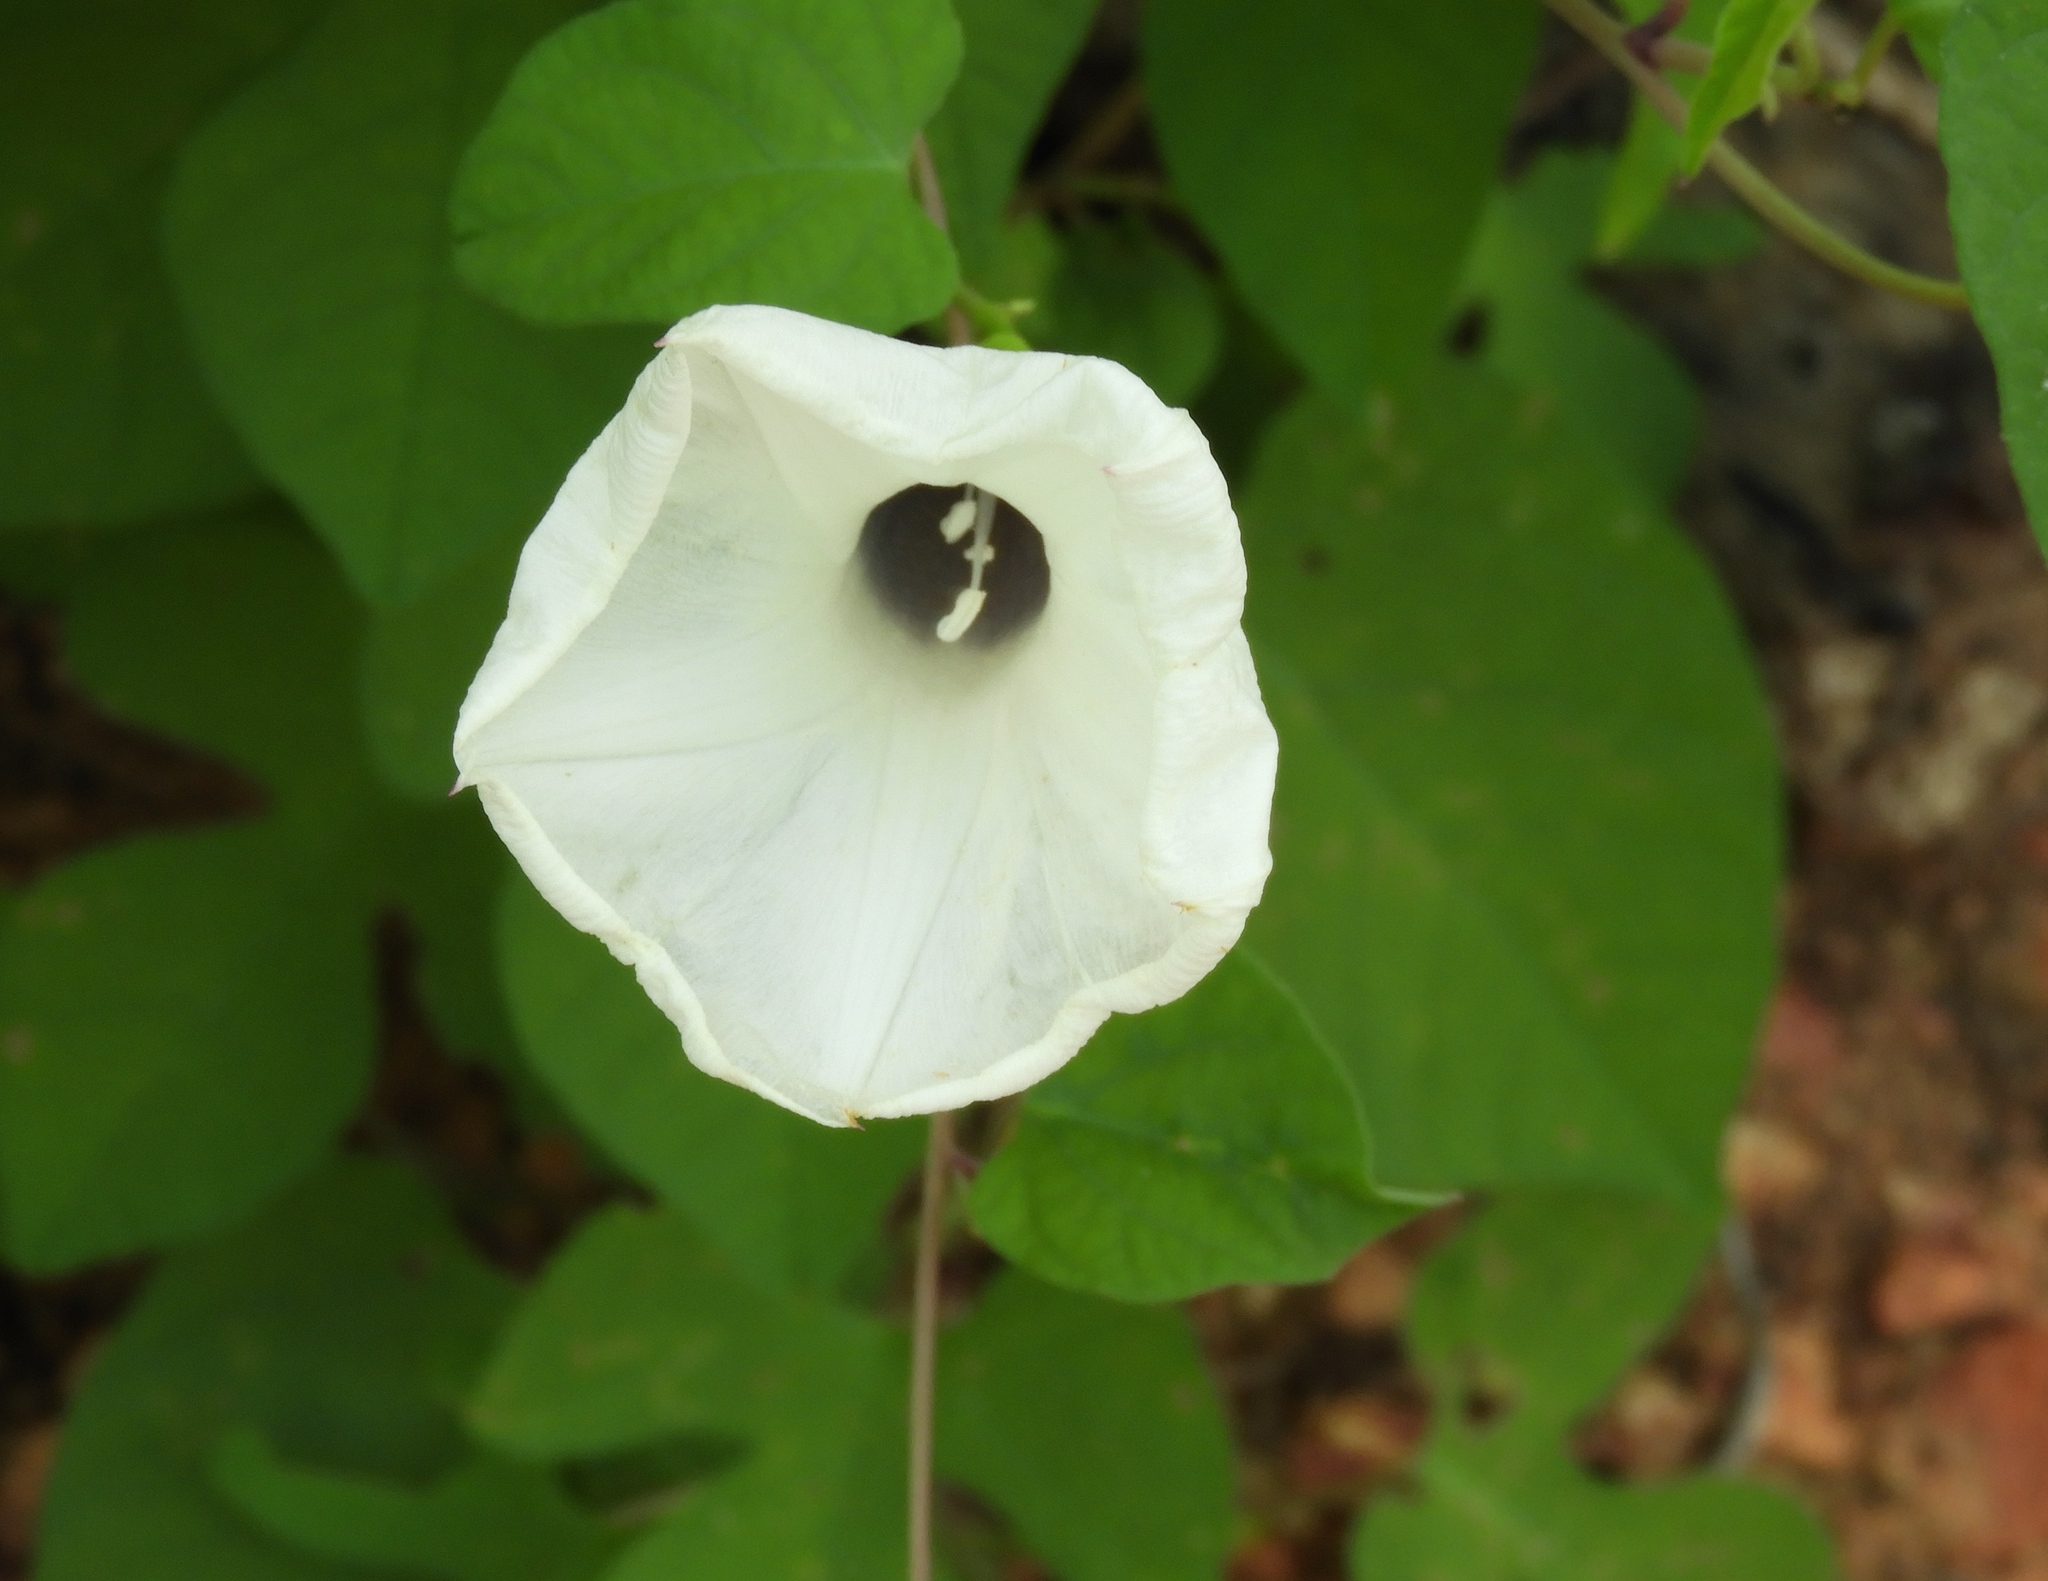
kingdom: Plantae
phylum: Tracheophyta
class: Magnoliopsida
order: Solanales
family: Convolvulaceae
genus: Ipomoea
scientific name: Ipomoea scopulorum
